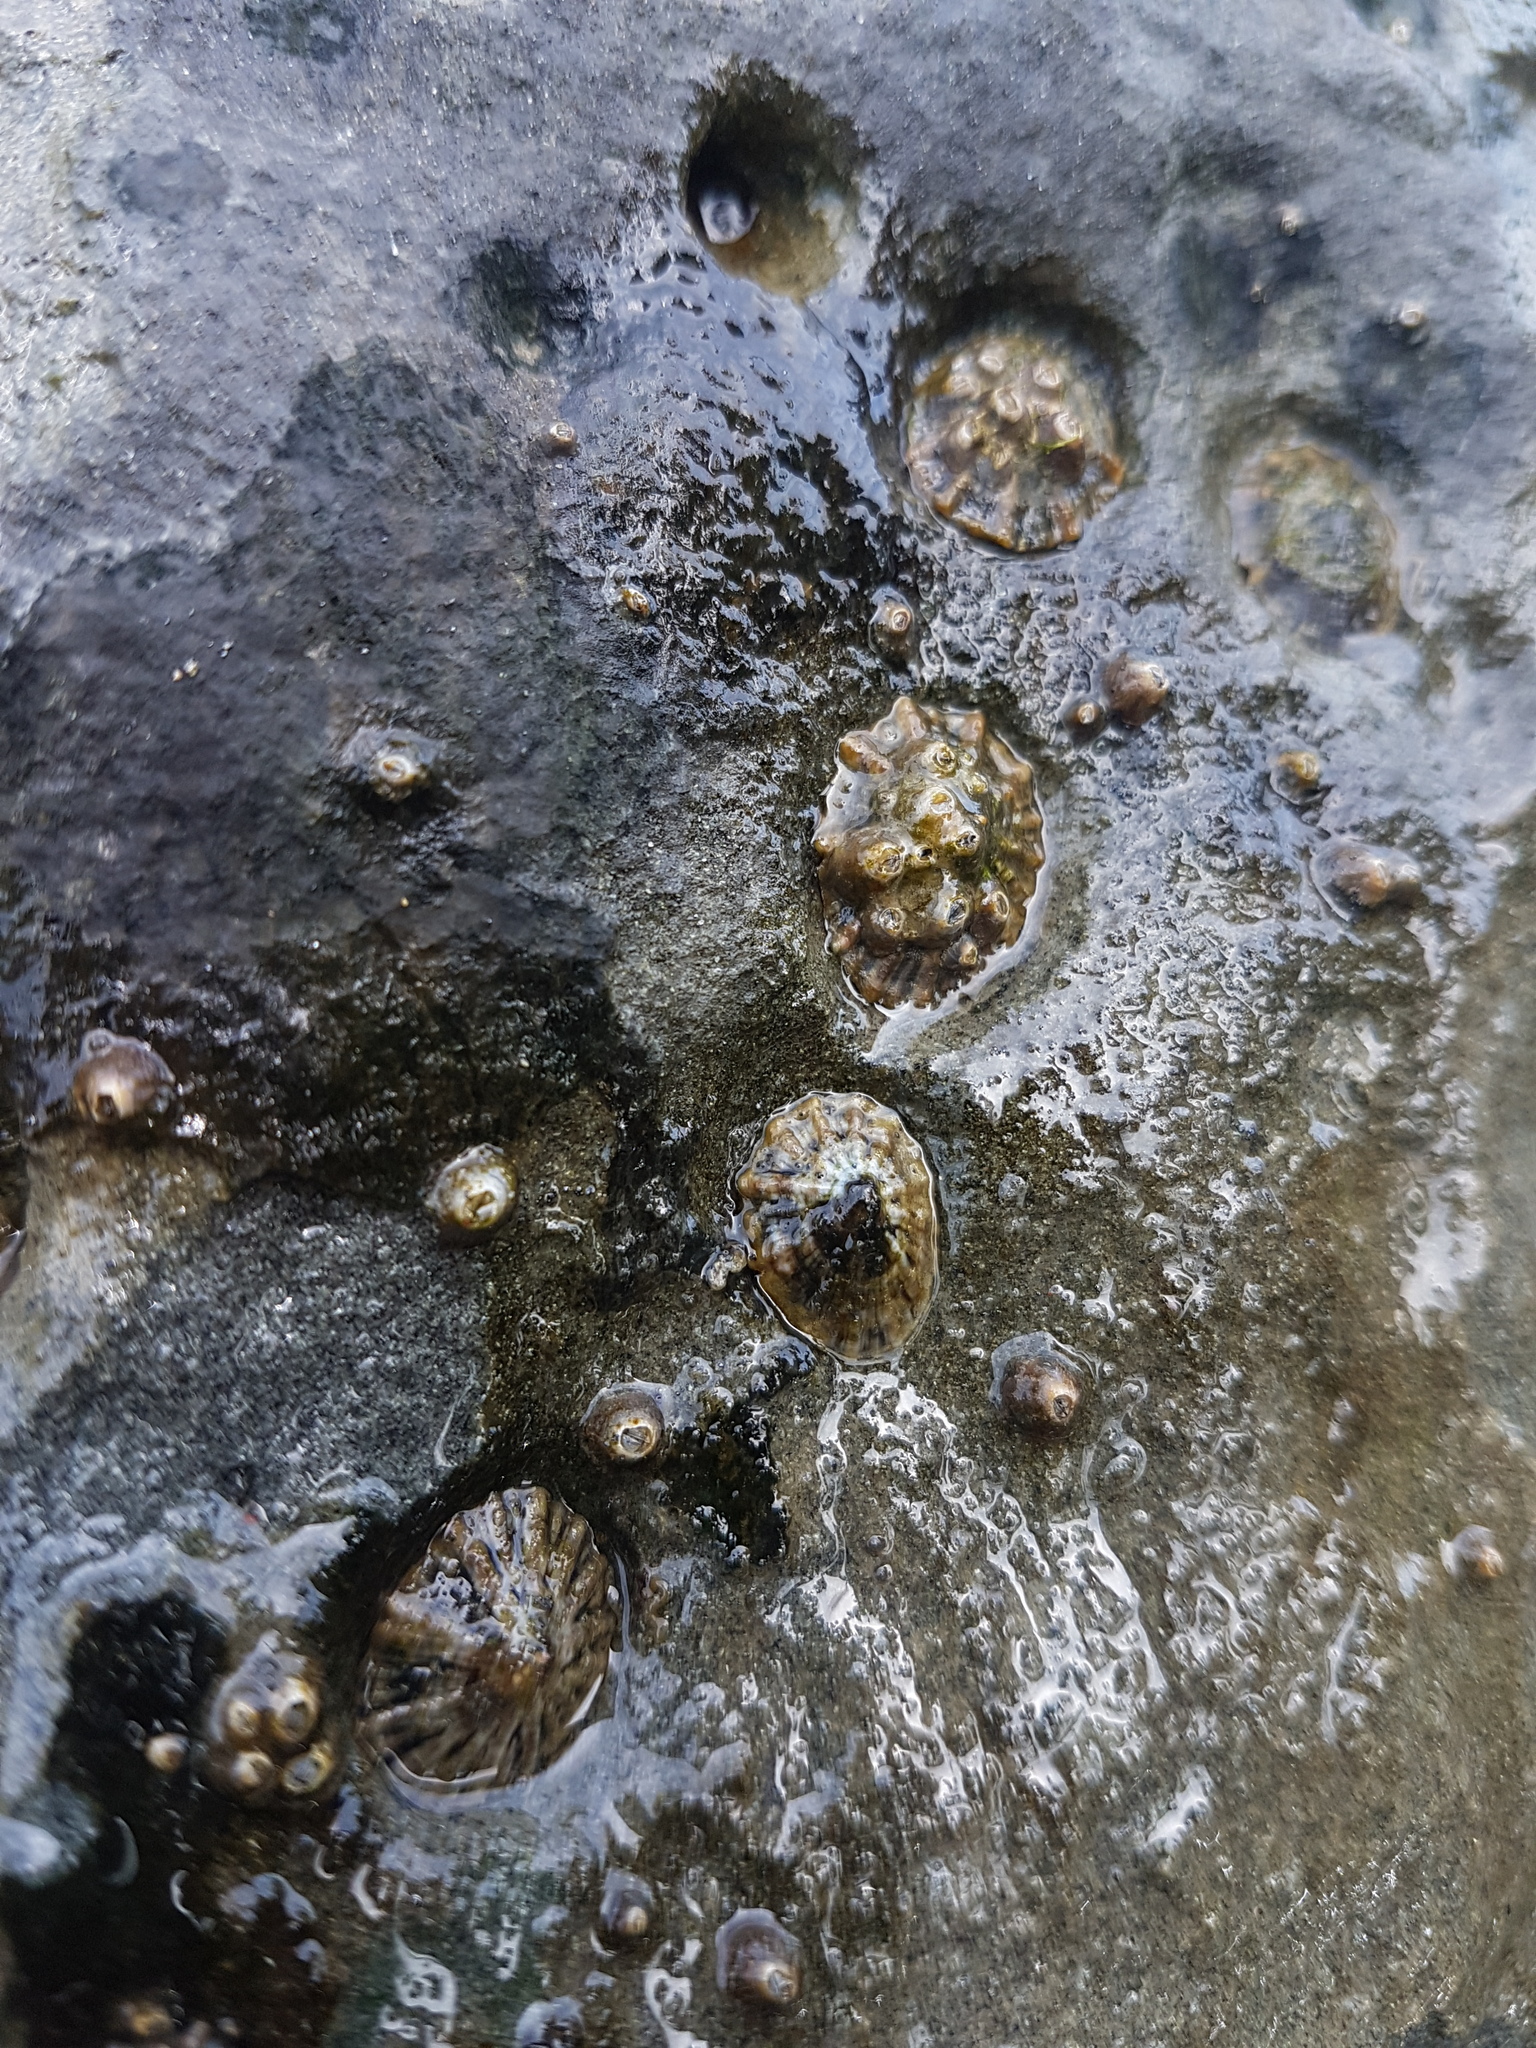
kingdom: Animalia
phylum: Mollusca
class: Gastropoda
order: Siphonariida
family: Siphonariidae
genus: Siphonaria
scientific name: Siphonaria australis
